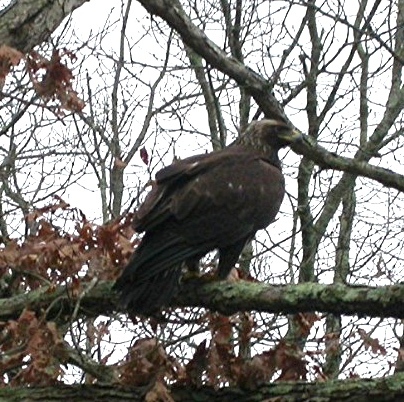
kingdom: Animalia
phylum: Chordata
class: Aves
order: Accipitriformes
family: Accipitridae
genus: Aquila
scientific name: Aquila chrysaetos
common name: Golden eagle
